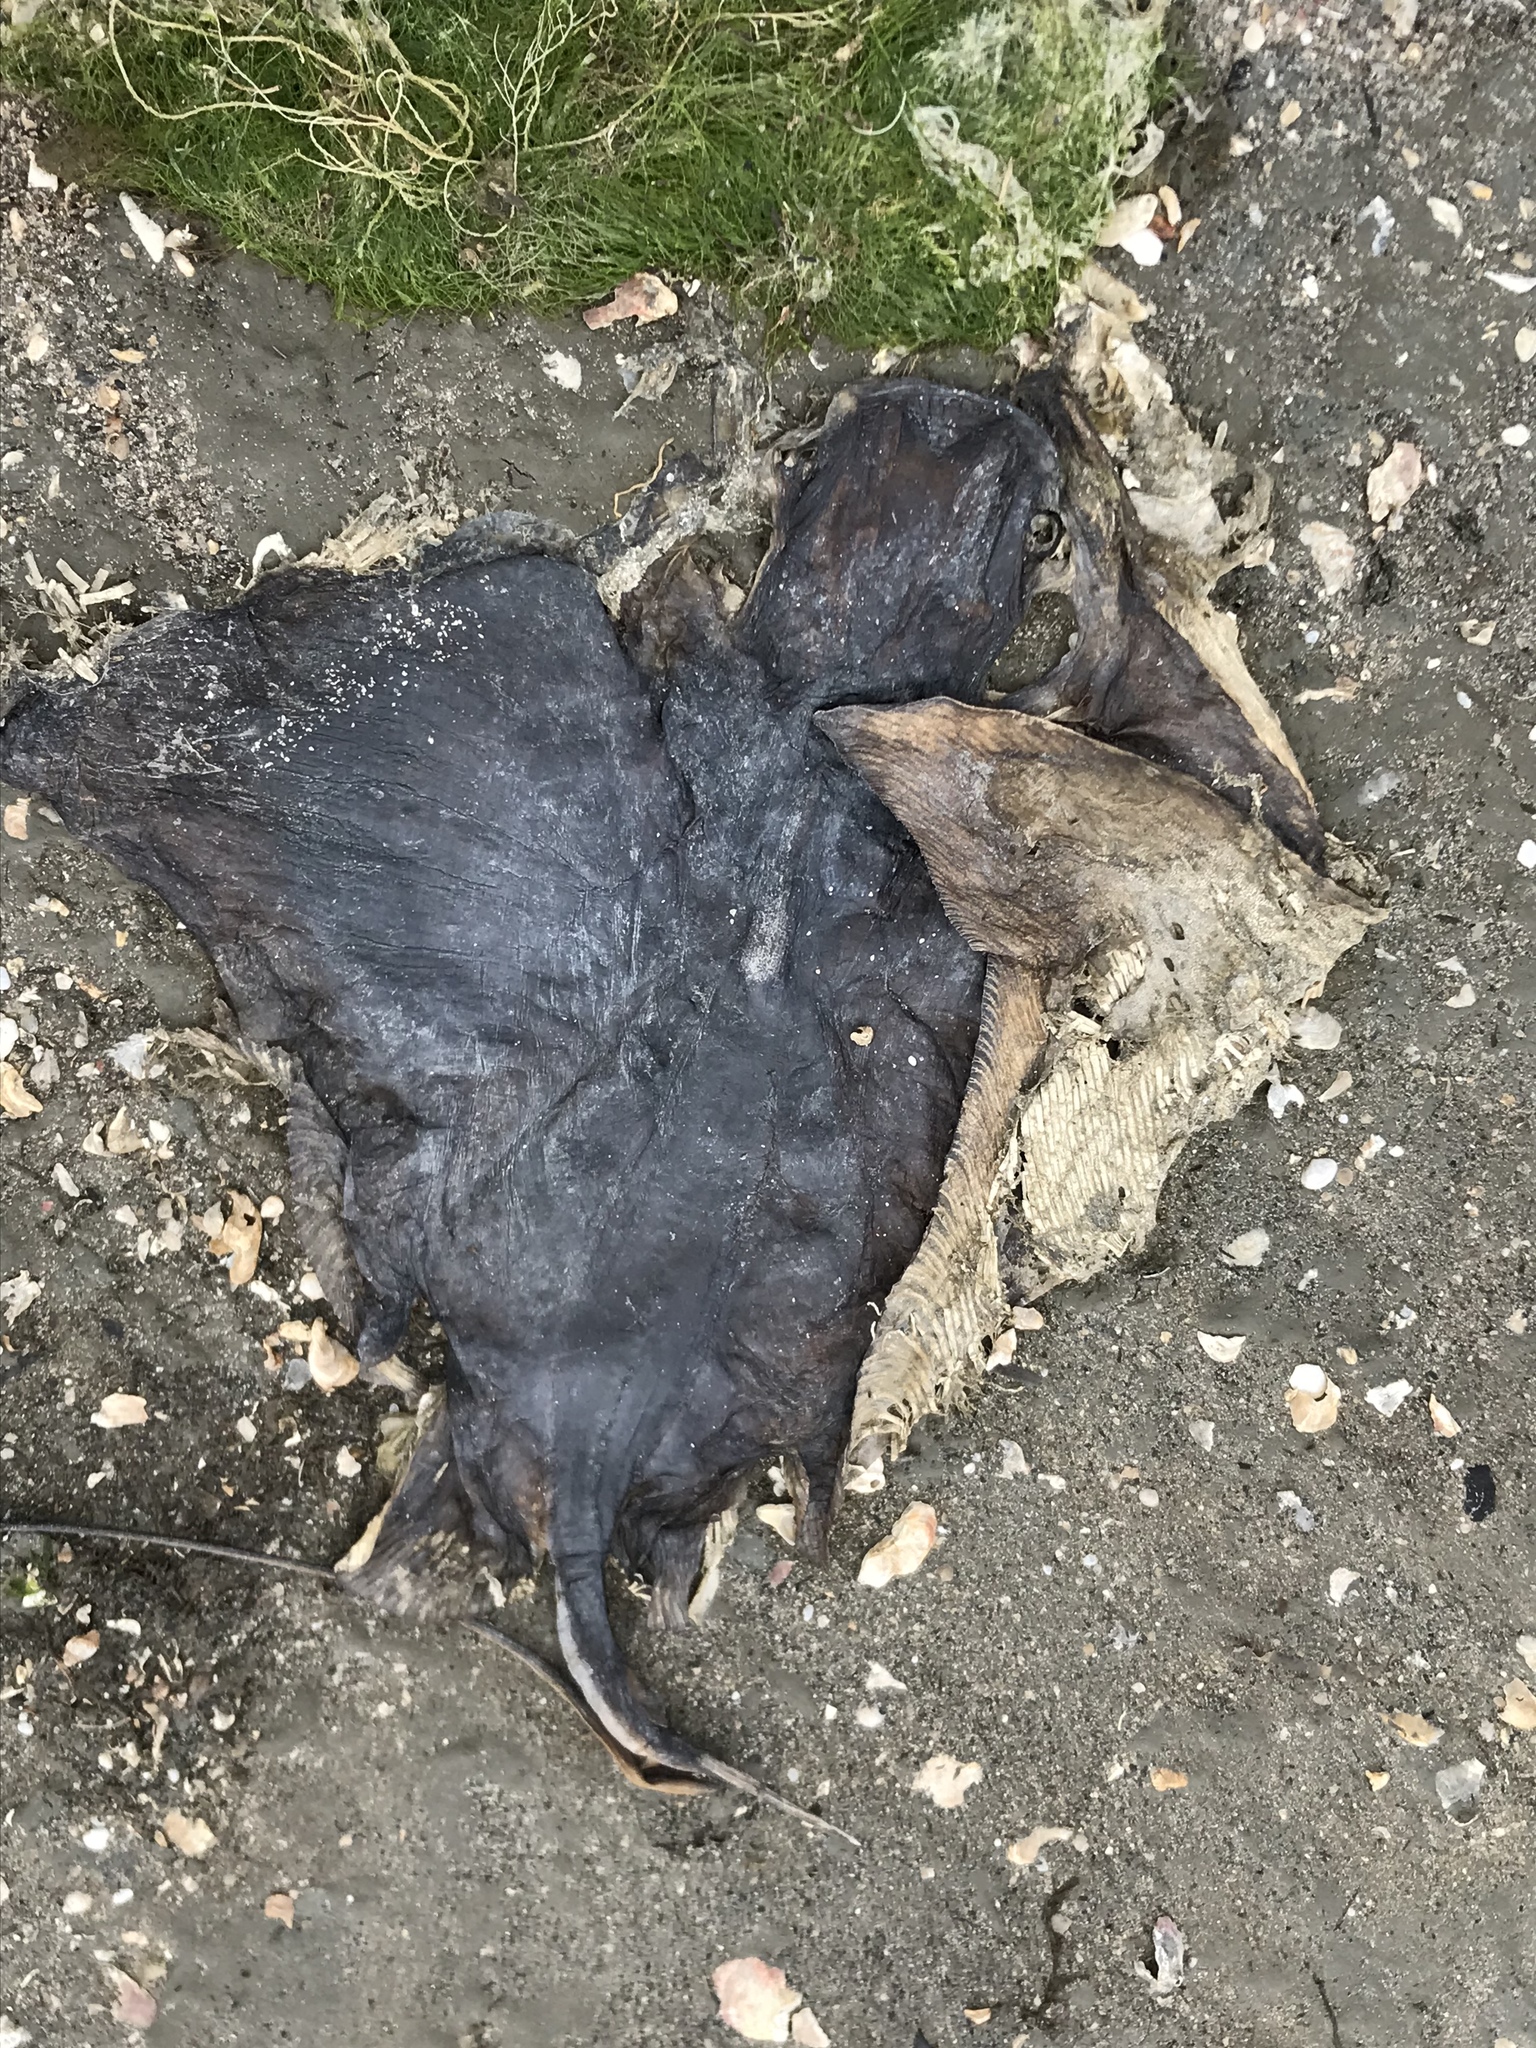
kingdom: Animalia
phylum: Chordata
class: Elasmobranchii
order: Myliobatiformes
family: Myliobatidae
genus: Myliobatis
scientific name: Myliobatis californica
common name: Bat ray
